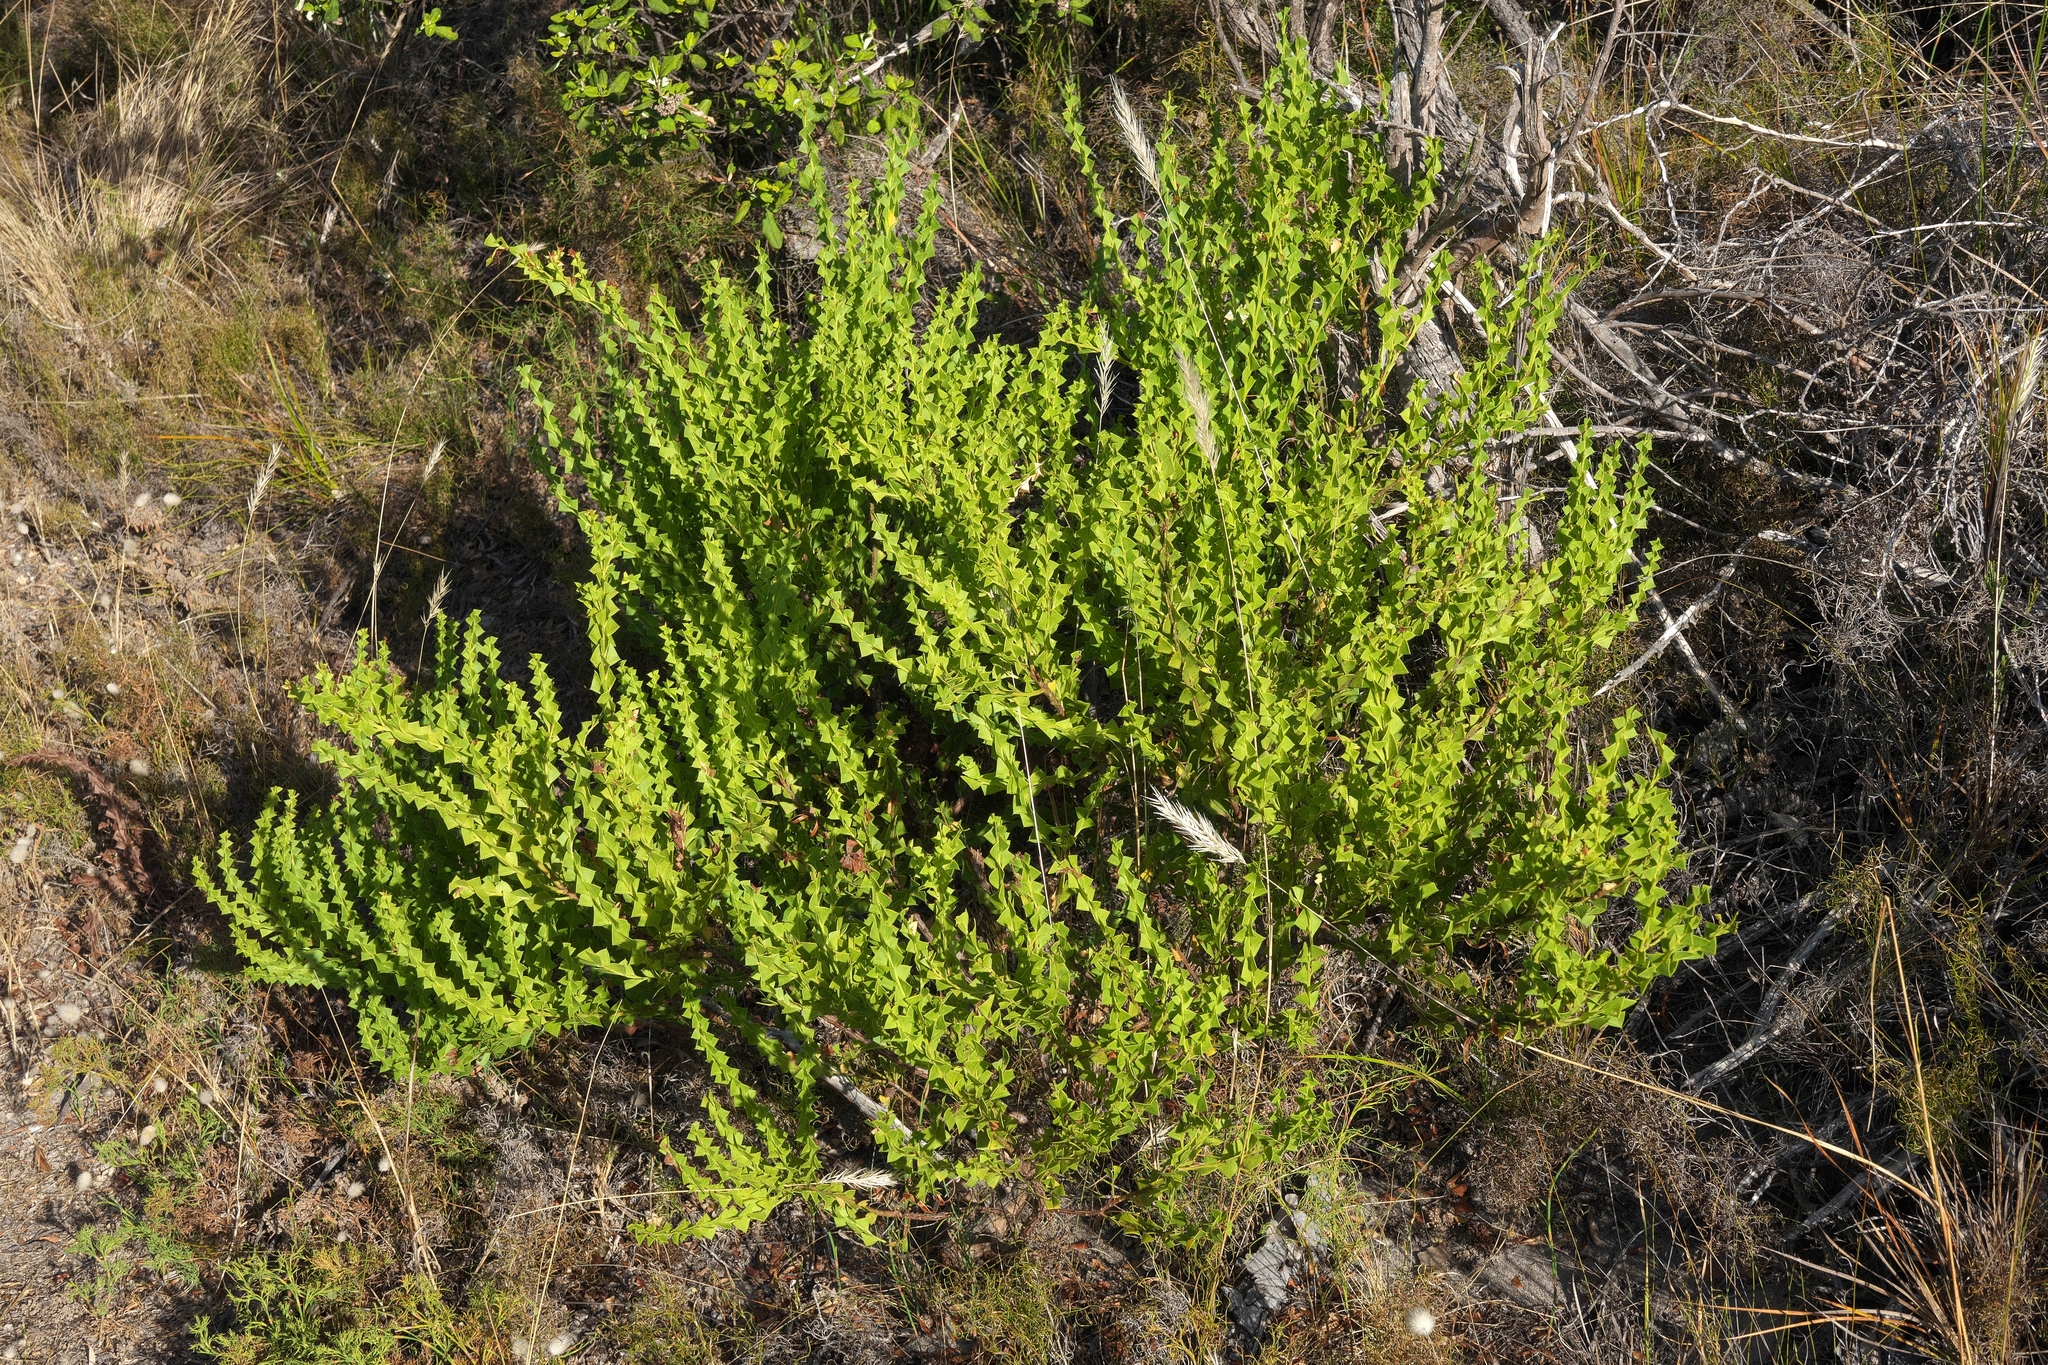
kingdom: Plantae
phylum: Tracheophyta
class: Magnoliopsida
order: Fabales
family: Fabaceae
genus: Acacia
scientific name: Acacia trapezoidea
